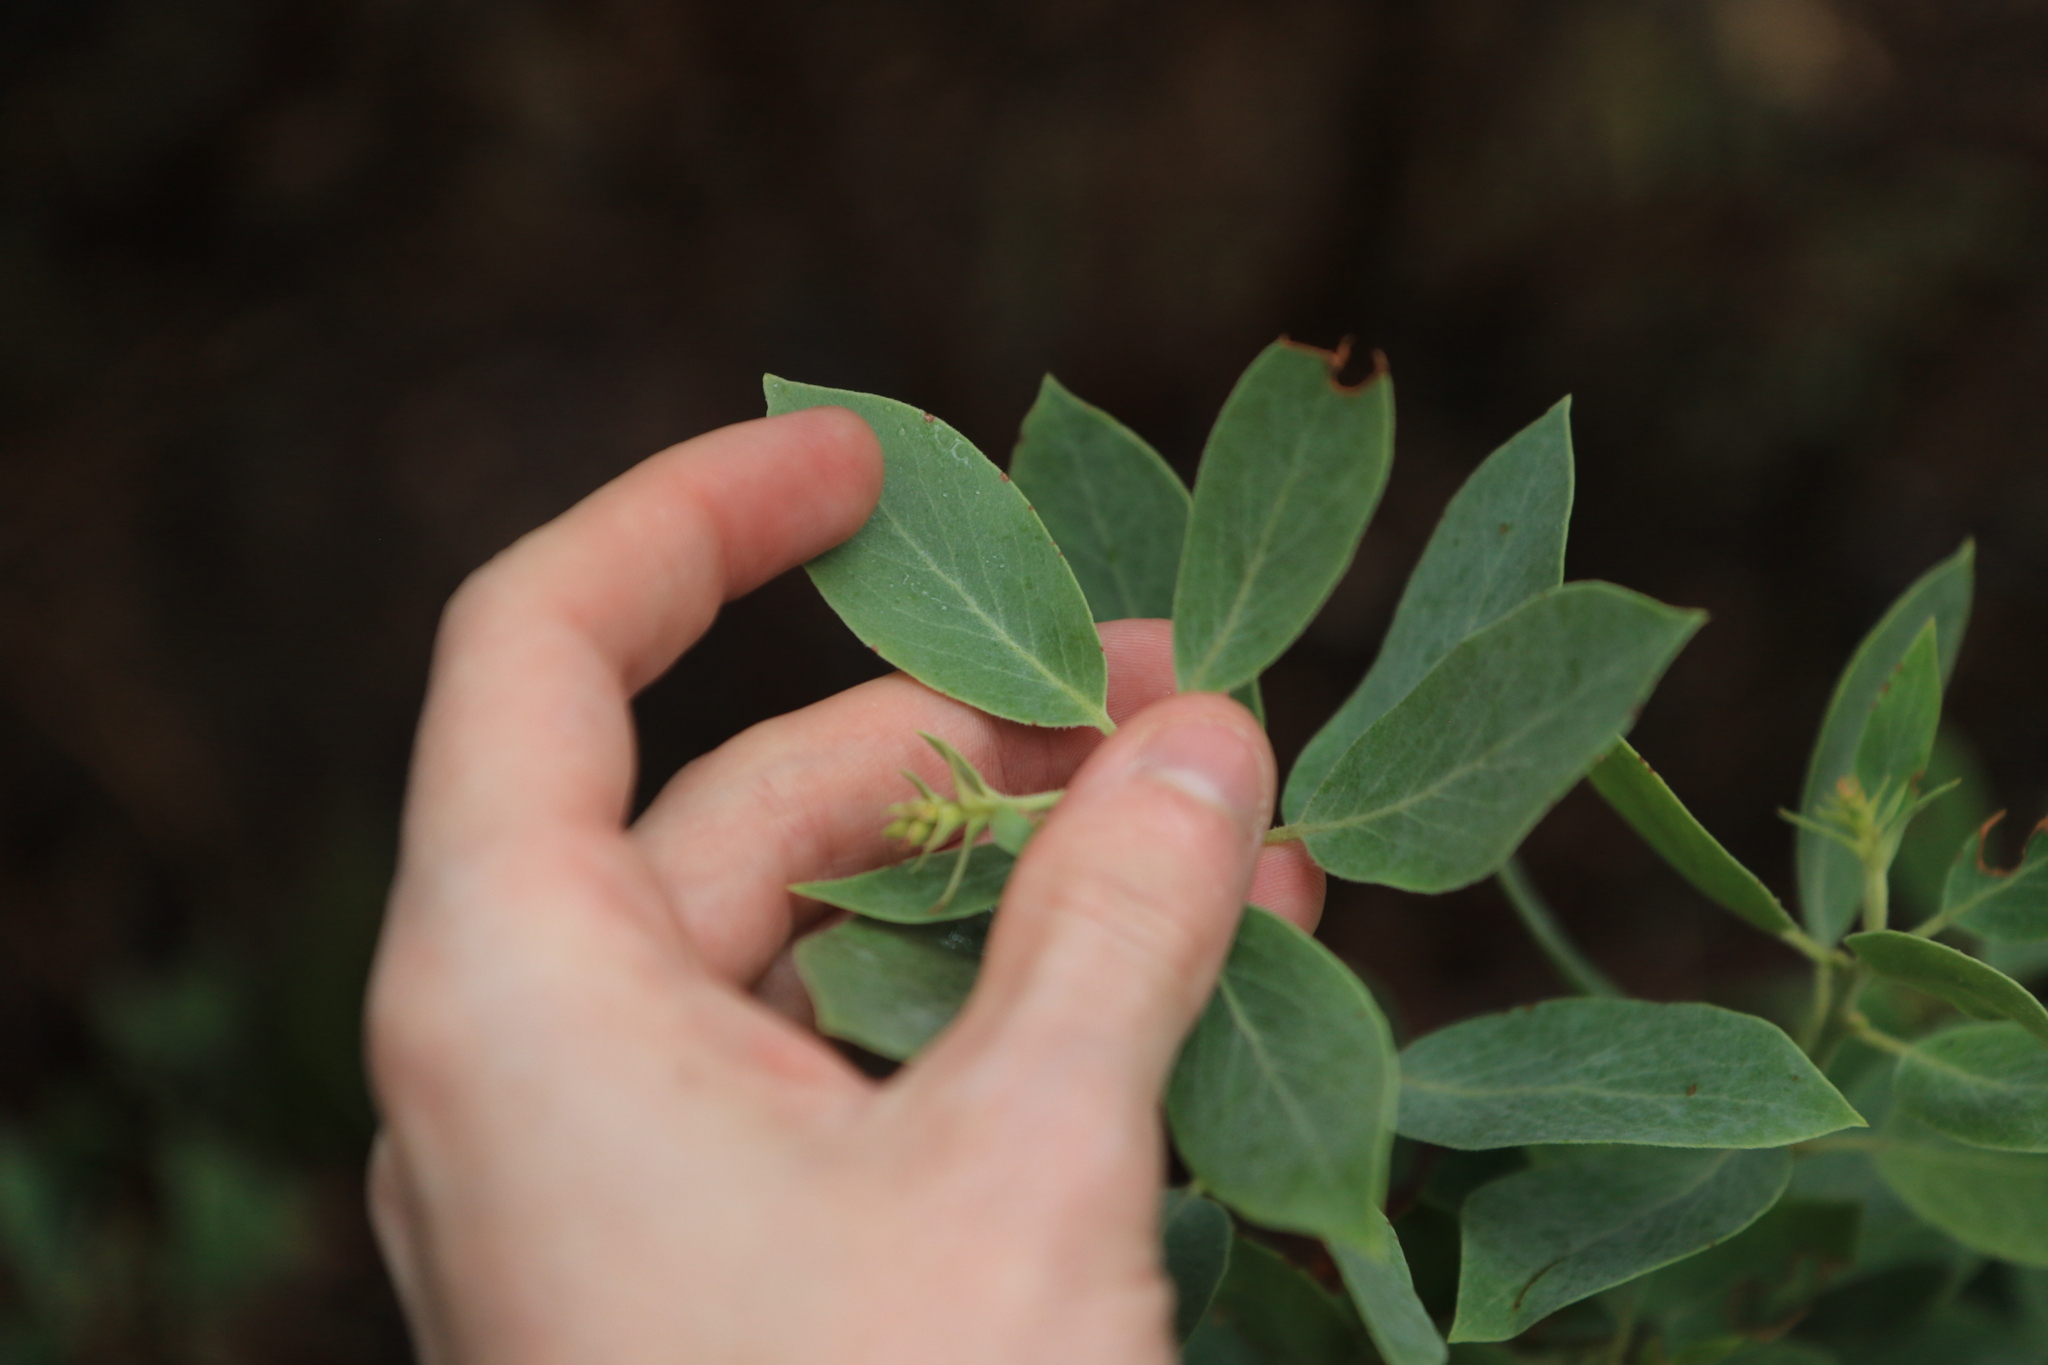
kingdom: Plantae
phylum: Tracheophyta
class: Magnoliopsida
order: Ericales
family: Ericaceae
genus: Arctostaphylos
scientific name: Arctostaphylos canescens
